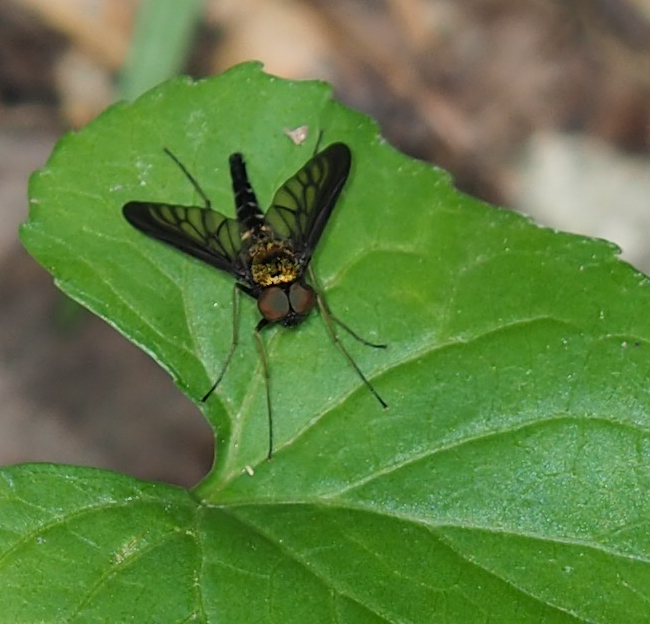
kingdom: Animalia
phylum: Arthropoda
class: Insecta
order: Diptera
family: Rhagionidae
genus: Chrysopilus
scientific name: Chrysopilus thoracicus
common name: Golden-backed snipe fly
